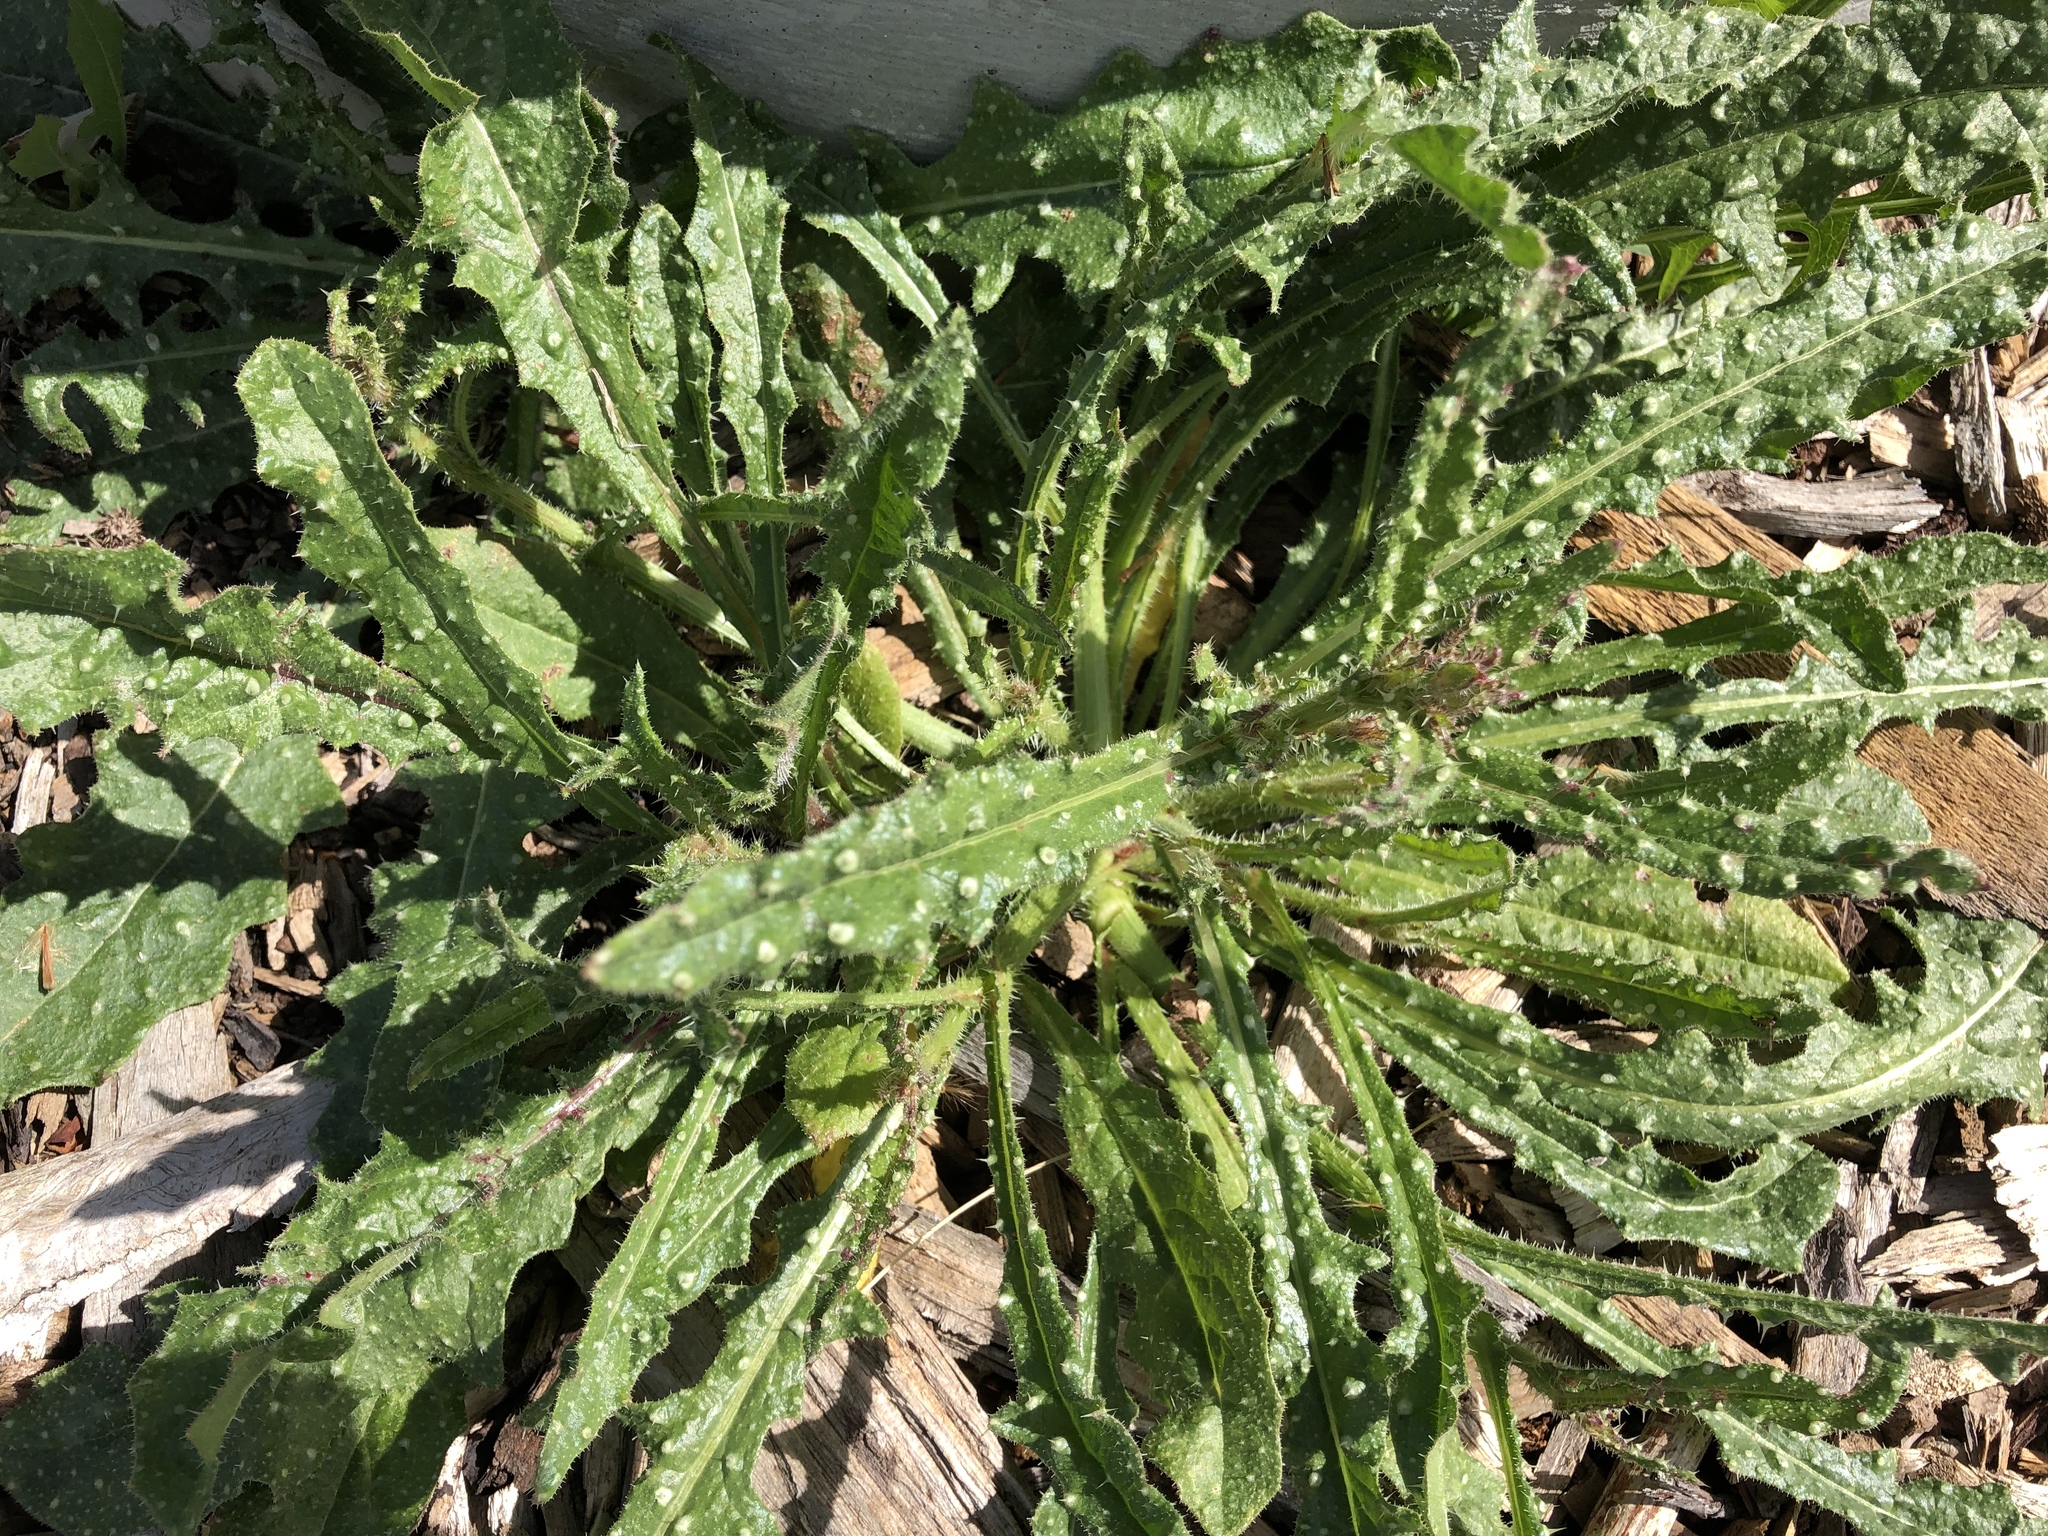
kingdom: Plantae
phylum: Tracheophyta
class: Magnoliopsida
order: Asterales
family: Asteraceae
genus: Helminthotheca
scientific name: Helminthotheca echioides
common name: Ox-tongue
